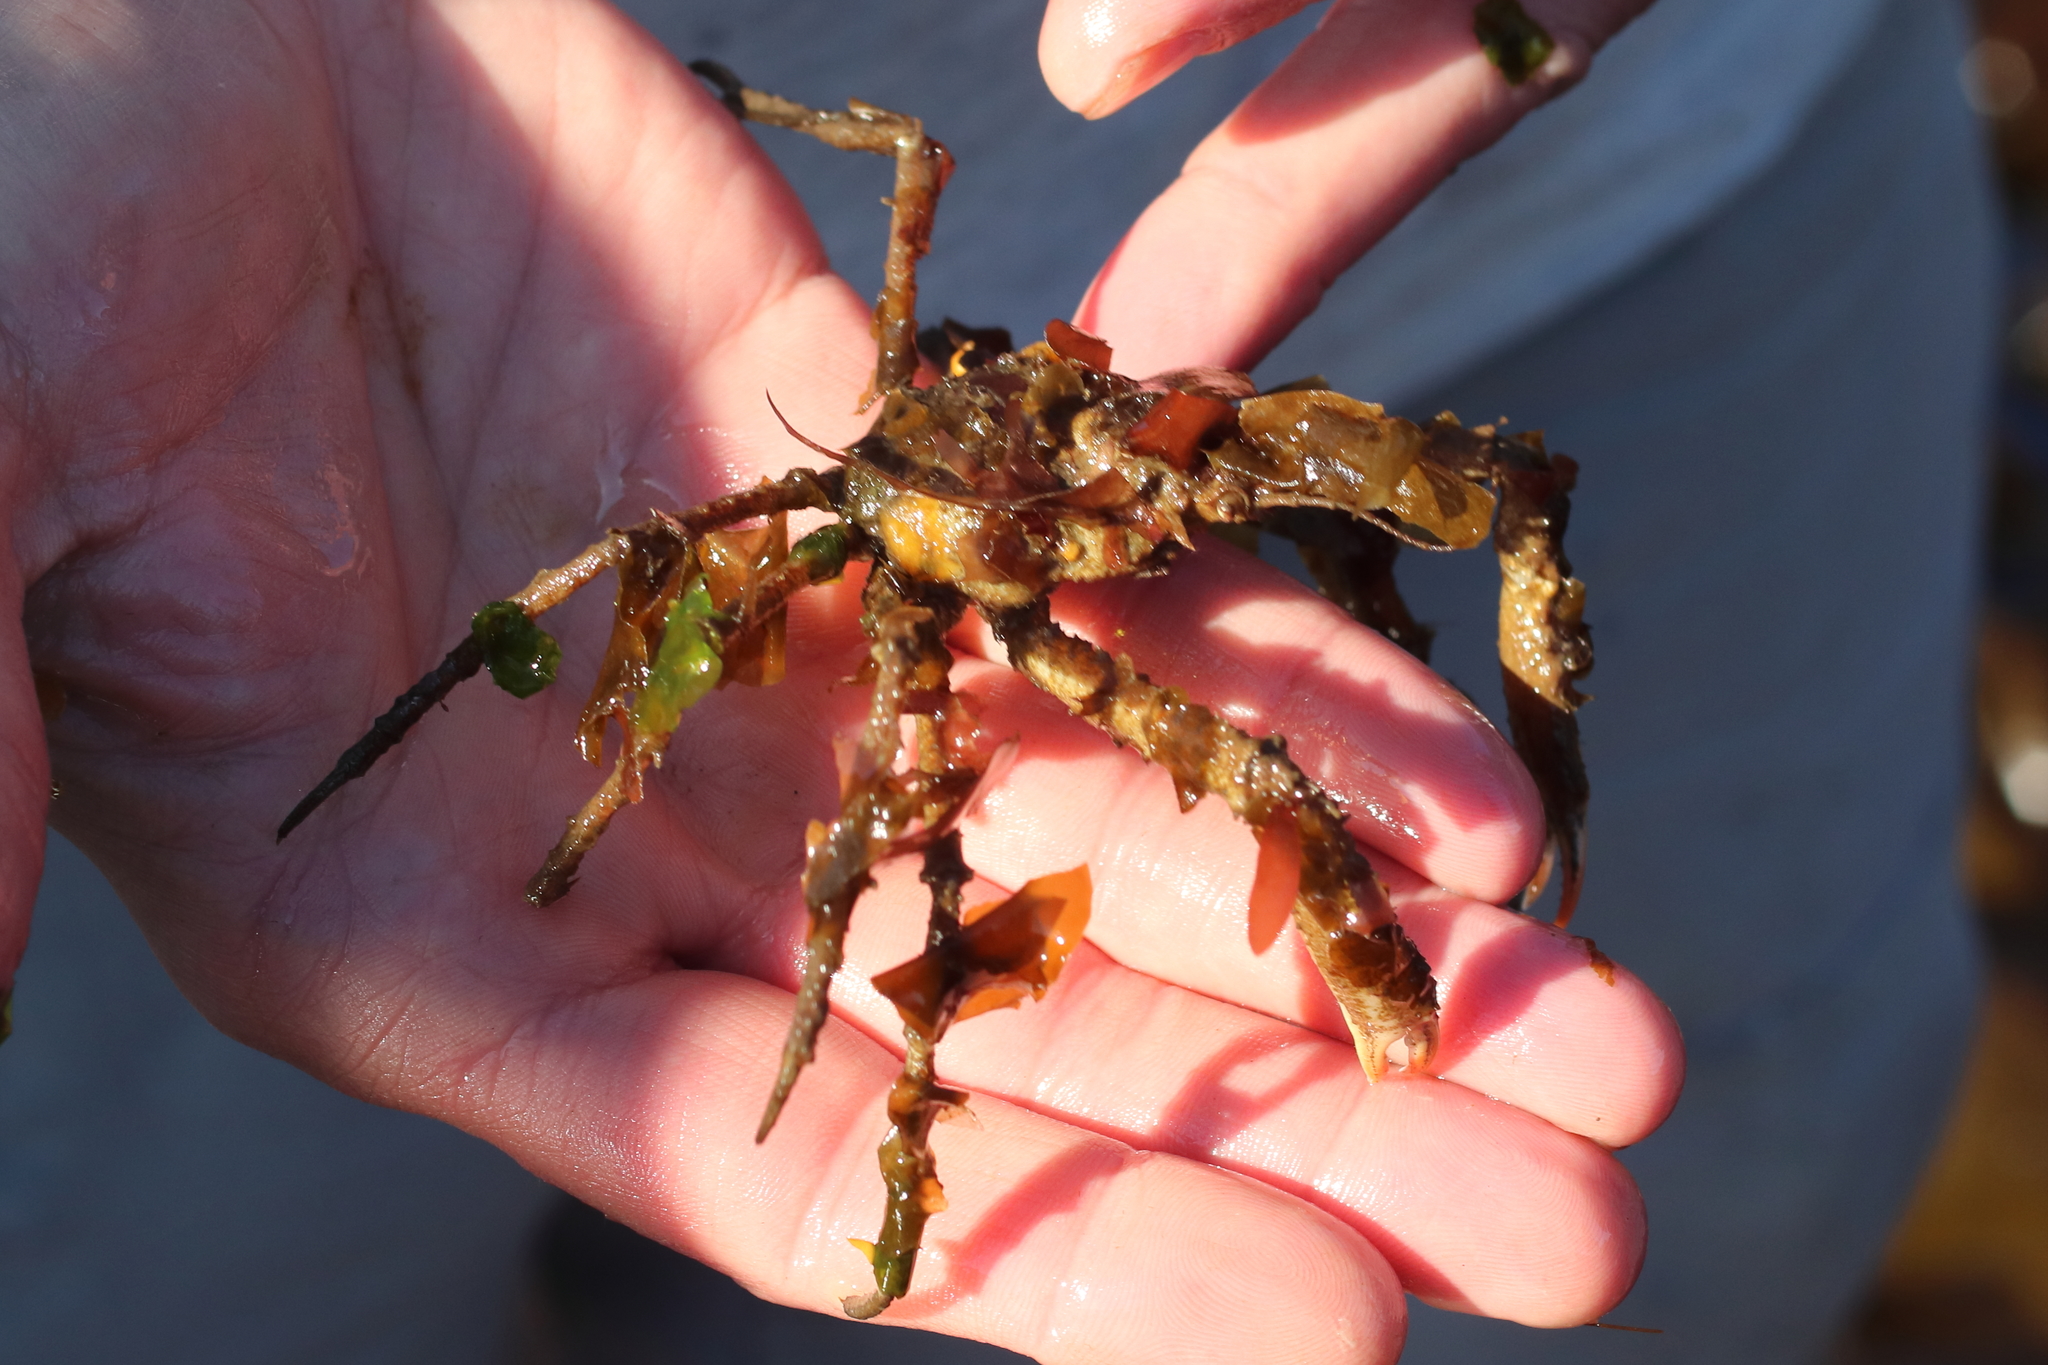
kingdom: Animalia
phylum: Arthropoda
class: Malacostraca
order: Decapoda
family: Oregoniidae
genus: Oregonia
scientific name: Oregonia gracilis
